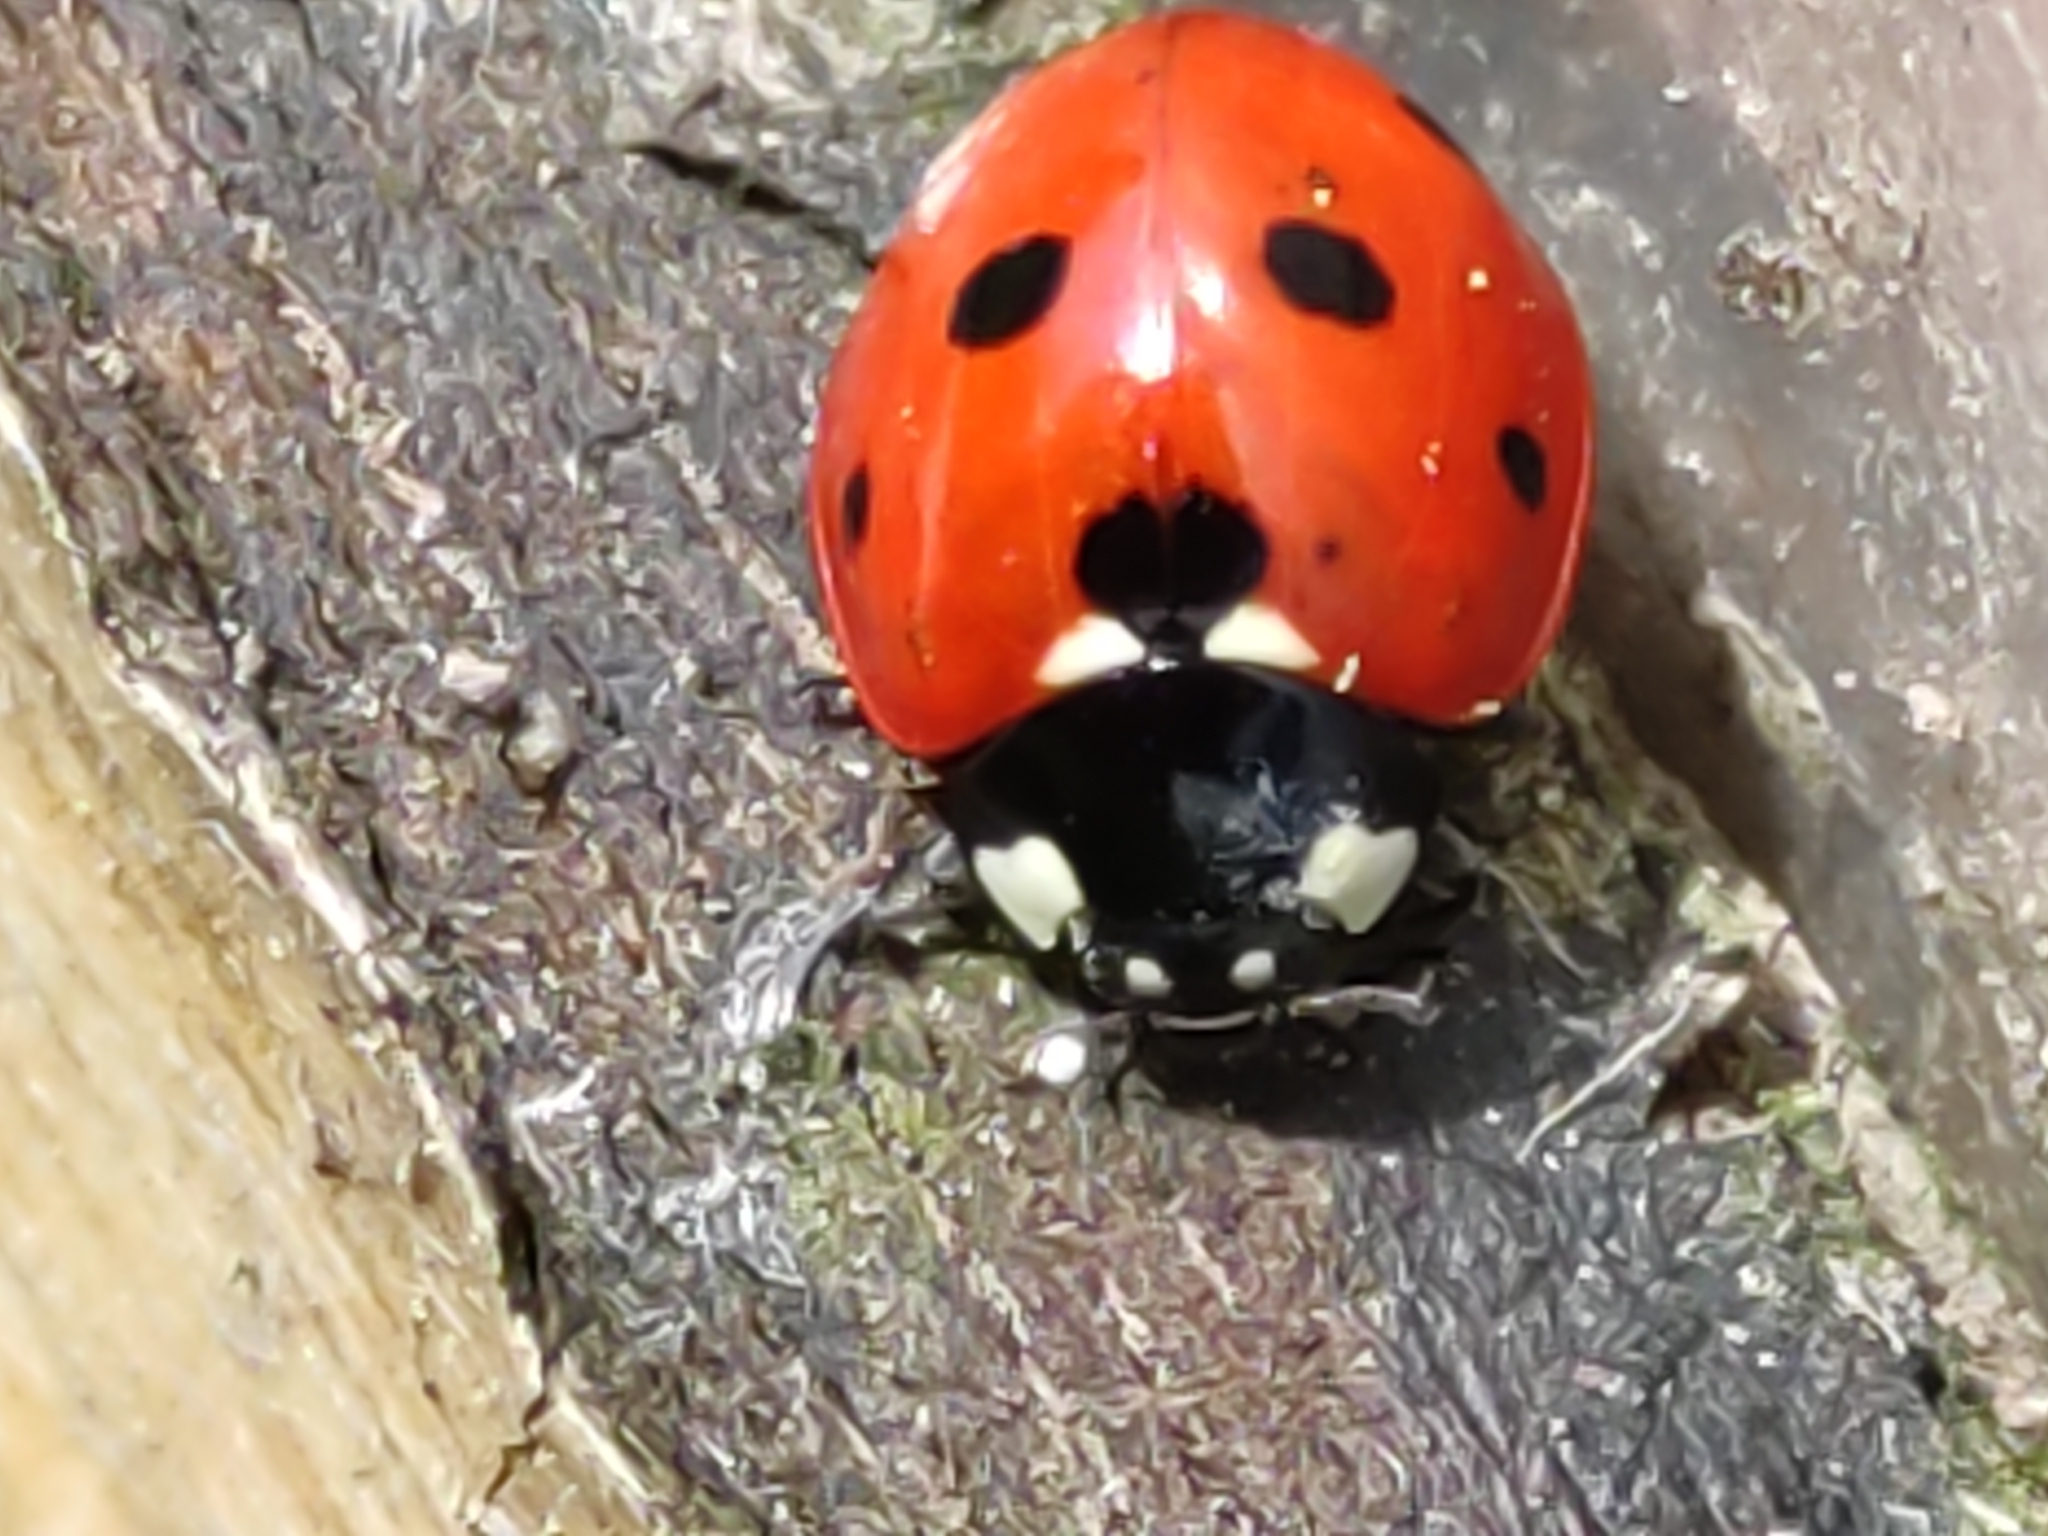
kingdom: Animalia
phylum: Arthropoda
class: Insecta
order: Coleoptera
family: Coccinellidae
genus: Coccinella
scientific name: Coccinella septempunctata
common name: Sevenspotted lady beetle
